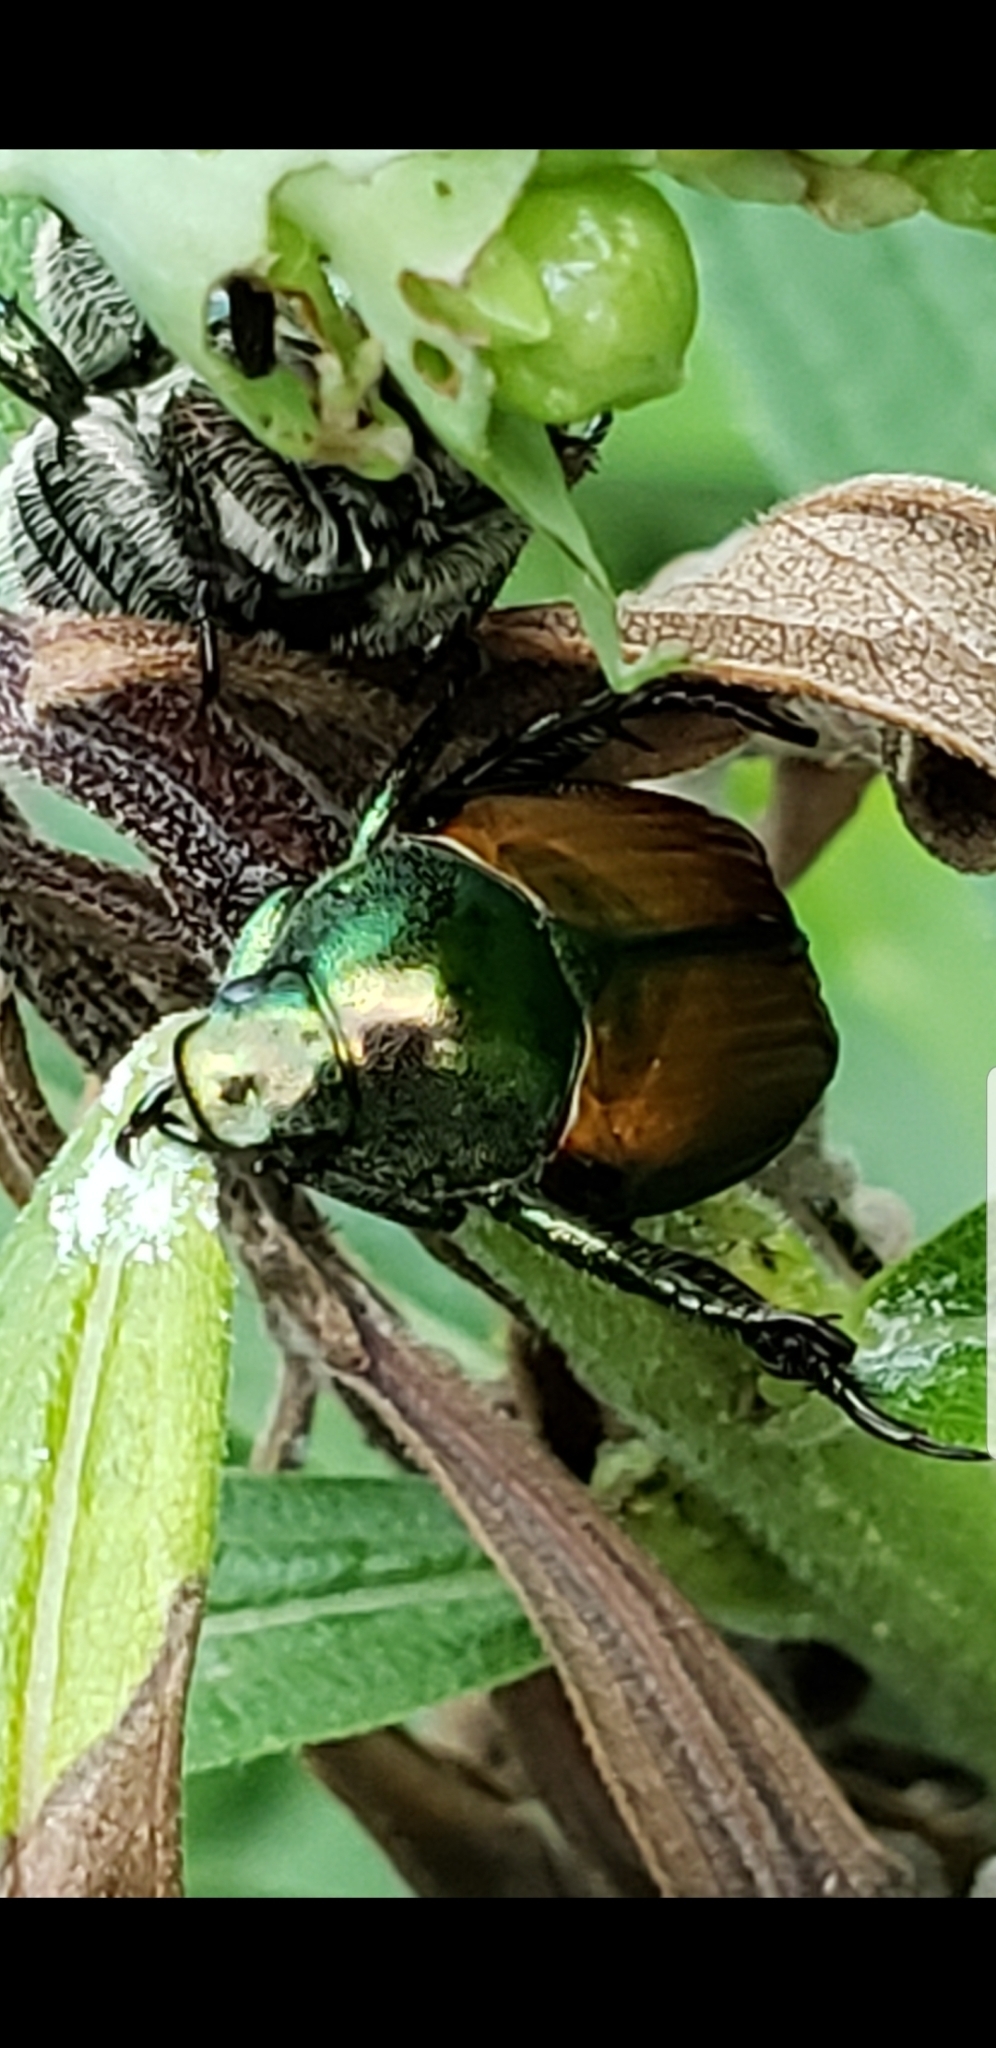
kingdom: Animalia
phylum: Arthropoda
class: Insecta
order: Coleoptera
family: Scarabaeidae
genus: Popillia
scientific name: Popillia japonica
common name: Japanese beetle
